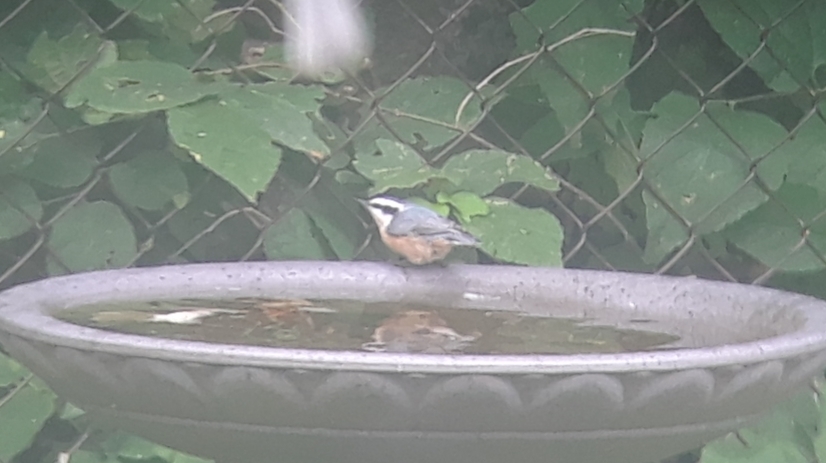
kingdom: Animalia
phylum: Chordata
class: Aves
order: Passeriformes
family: Sittidae
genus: Sitta
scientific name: Sitta canadensis
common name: Red-breasted nuthatch
